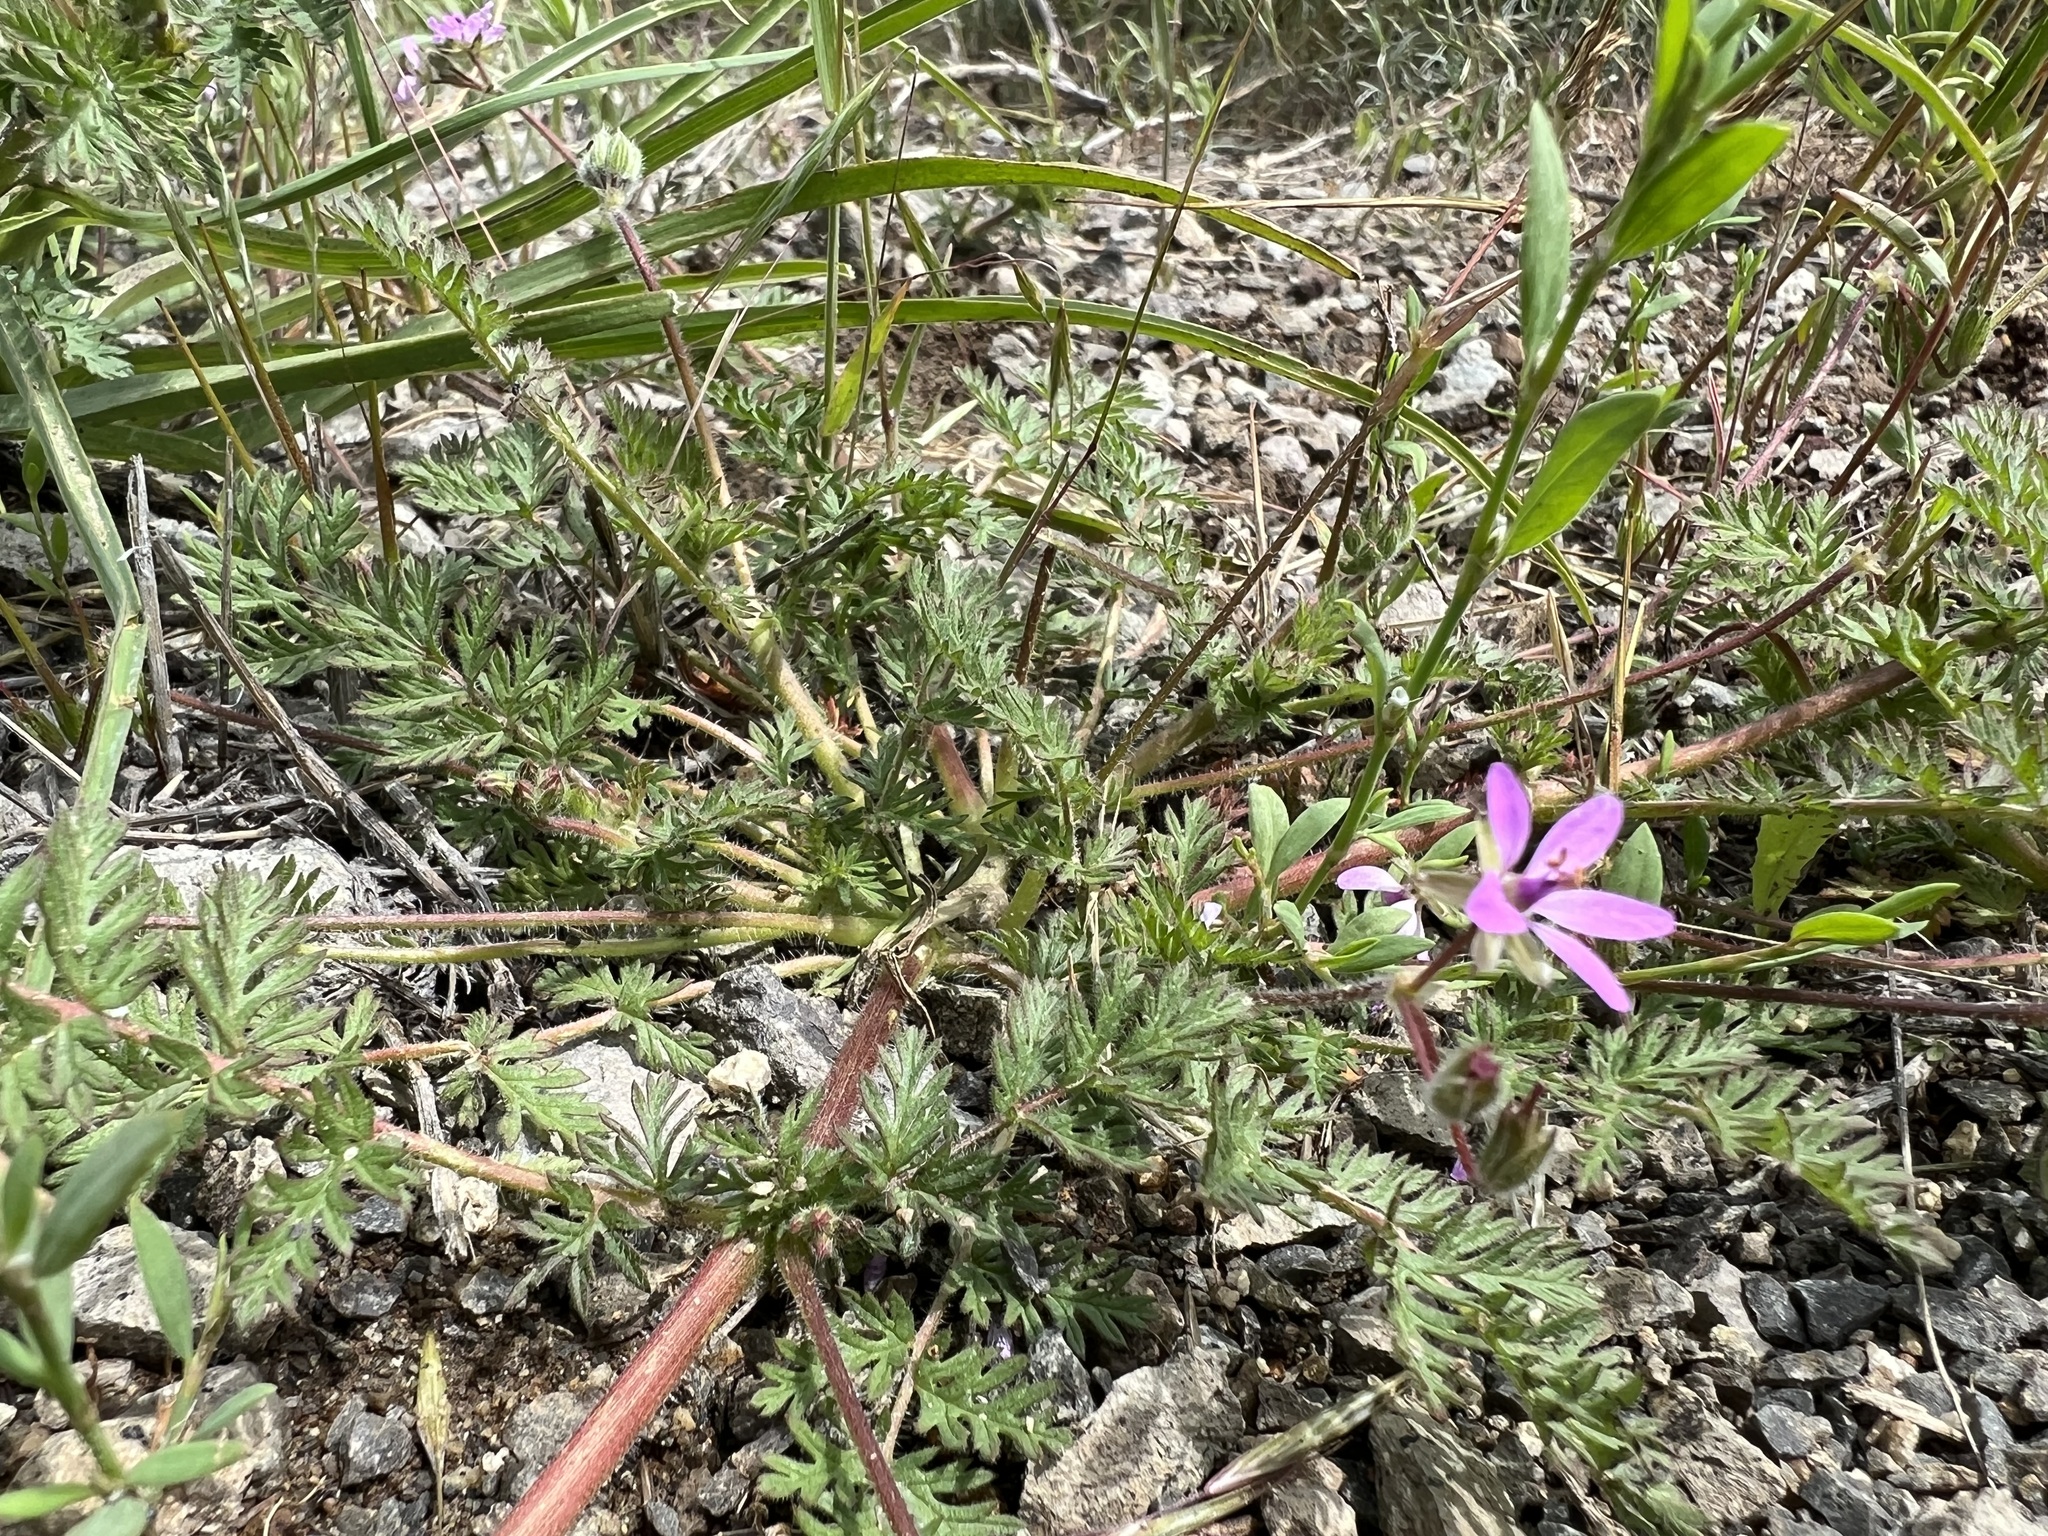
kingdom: Plantae
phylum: Tracheophyta
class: Magnoliopsida
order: Geraniales
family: Geraniaceae
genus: Erodium
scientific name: Erodium cicutarium
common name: Common stork's-bill
